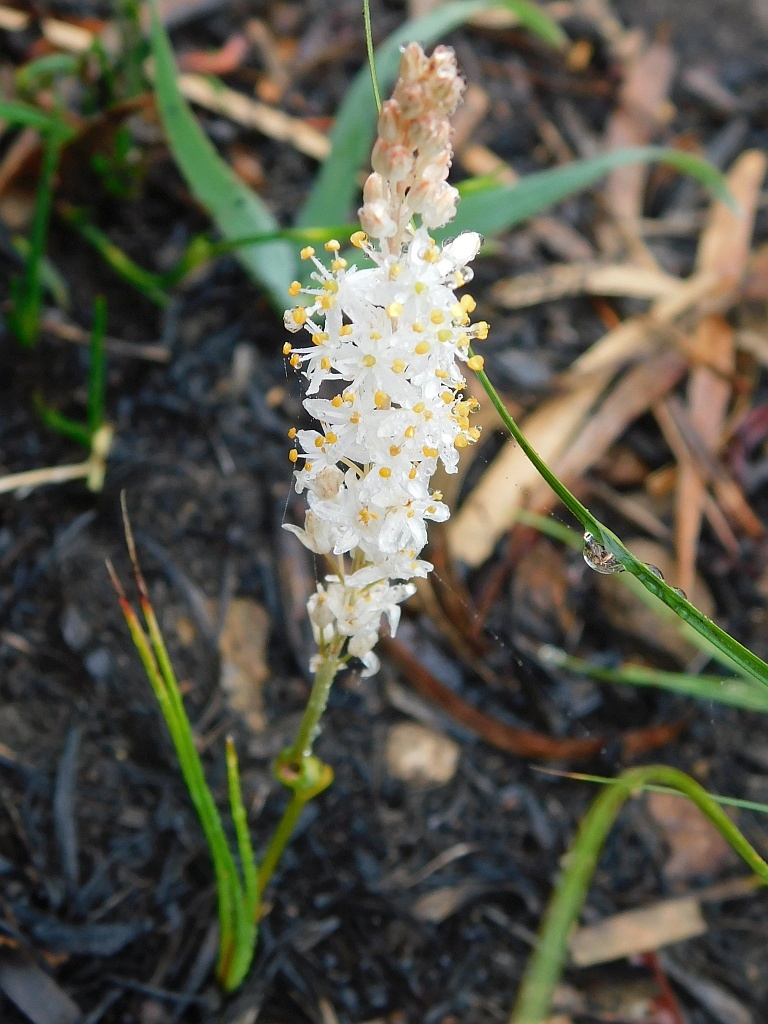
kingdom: Plantae
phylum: Tracheophyta
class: Liliopsida
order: Asparagales
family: Asphodelaceae
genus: Bulbinella
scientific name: Bulbinella trinervis
